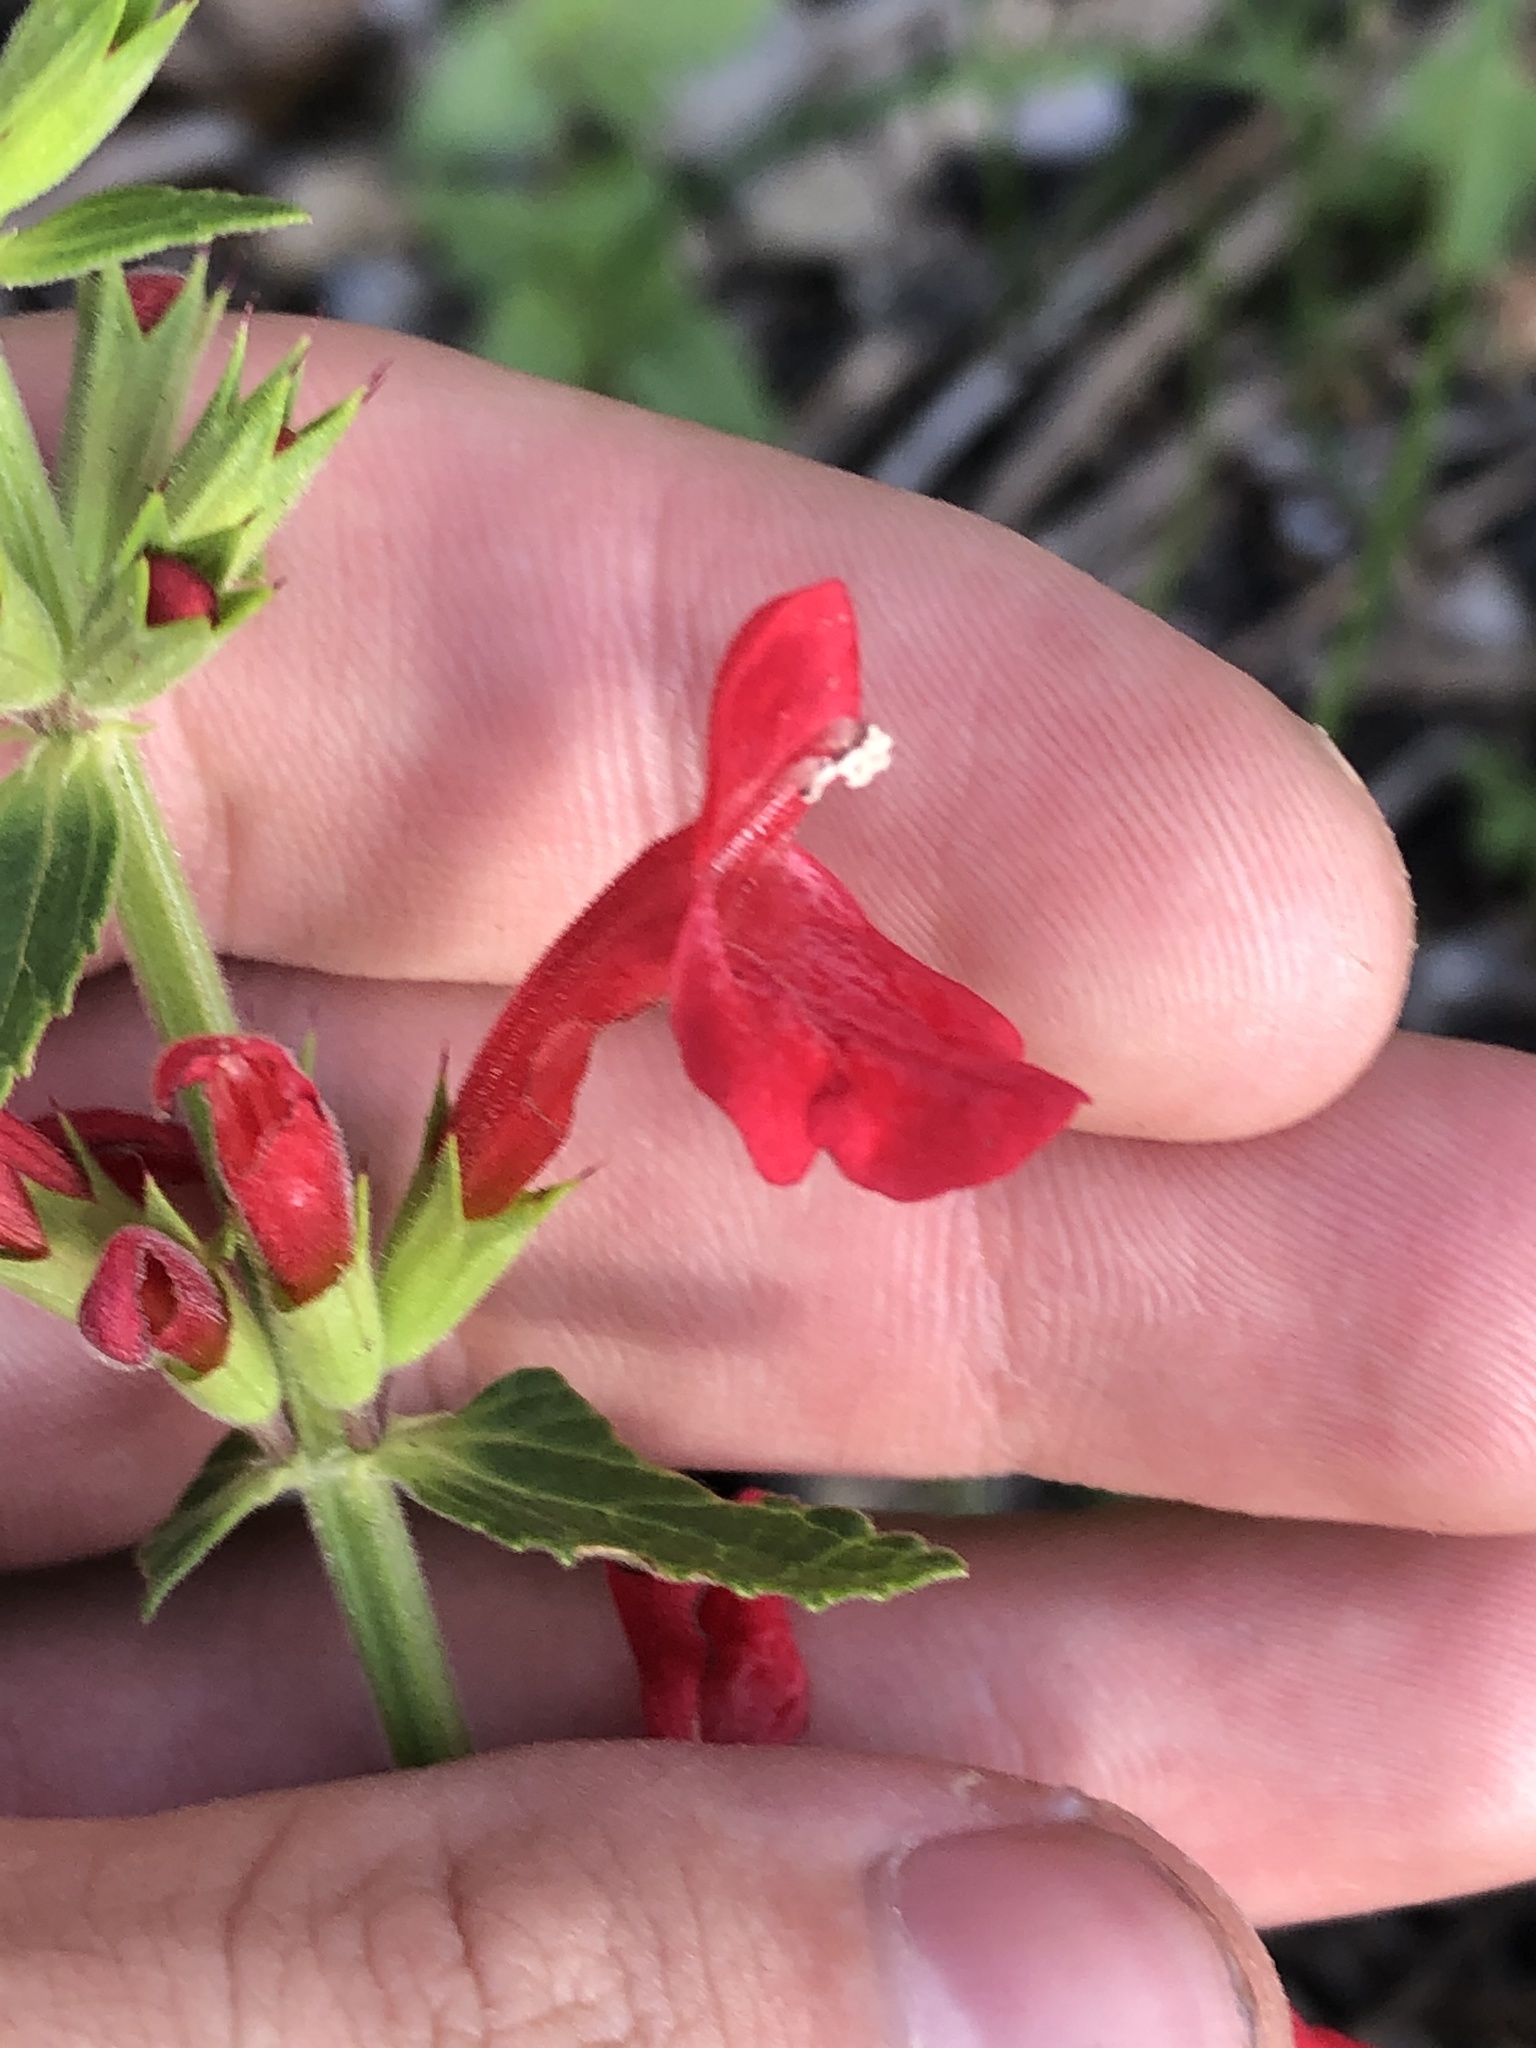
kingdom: Plantae
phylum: Tracheophyta
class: Magnoliopsida
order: Lamiales
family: Lamiaceae
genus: Stachys
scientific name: Stachys coccinea
